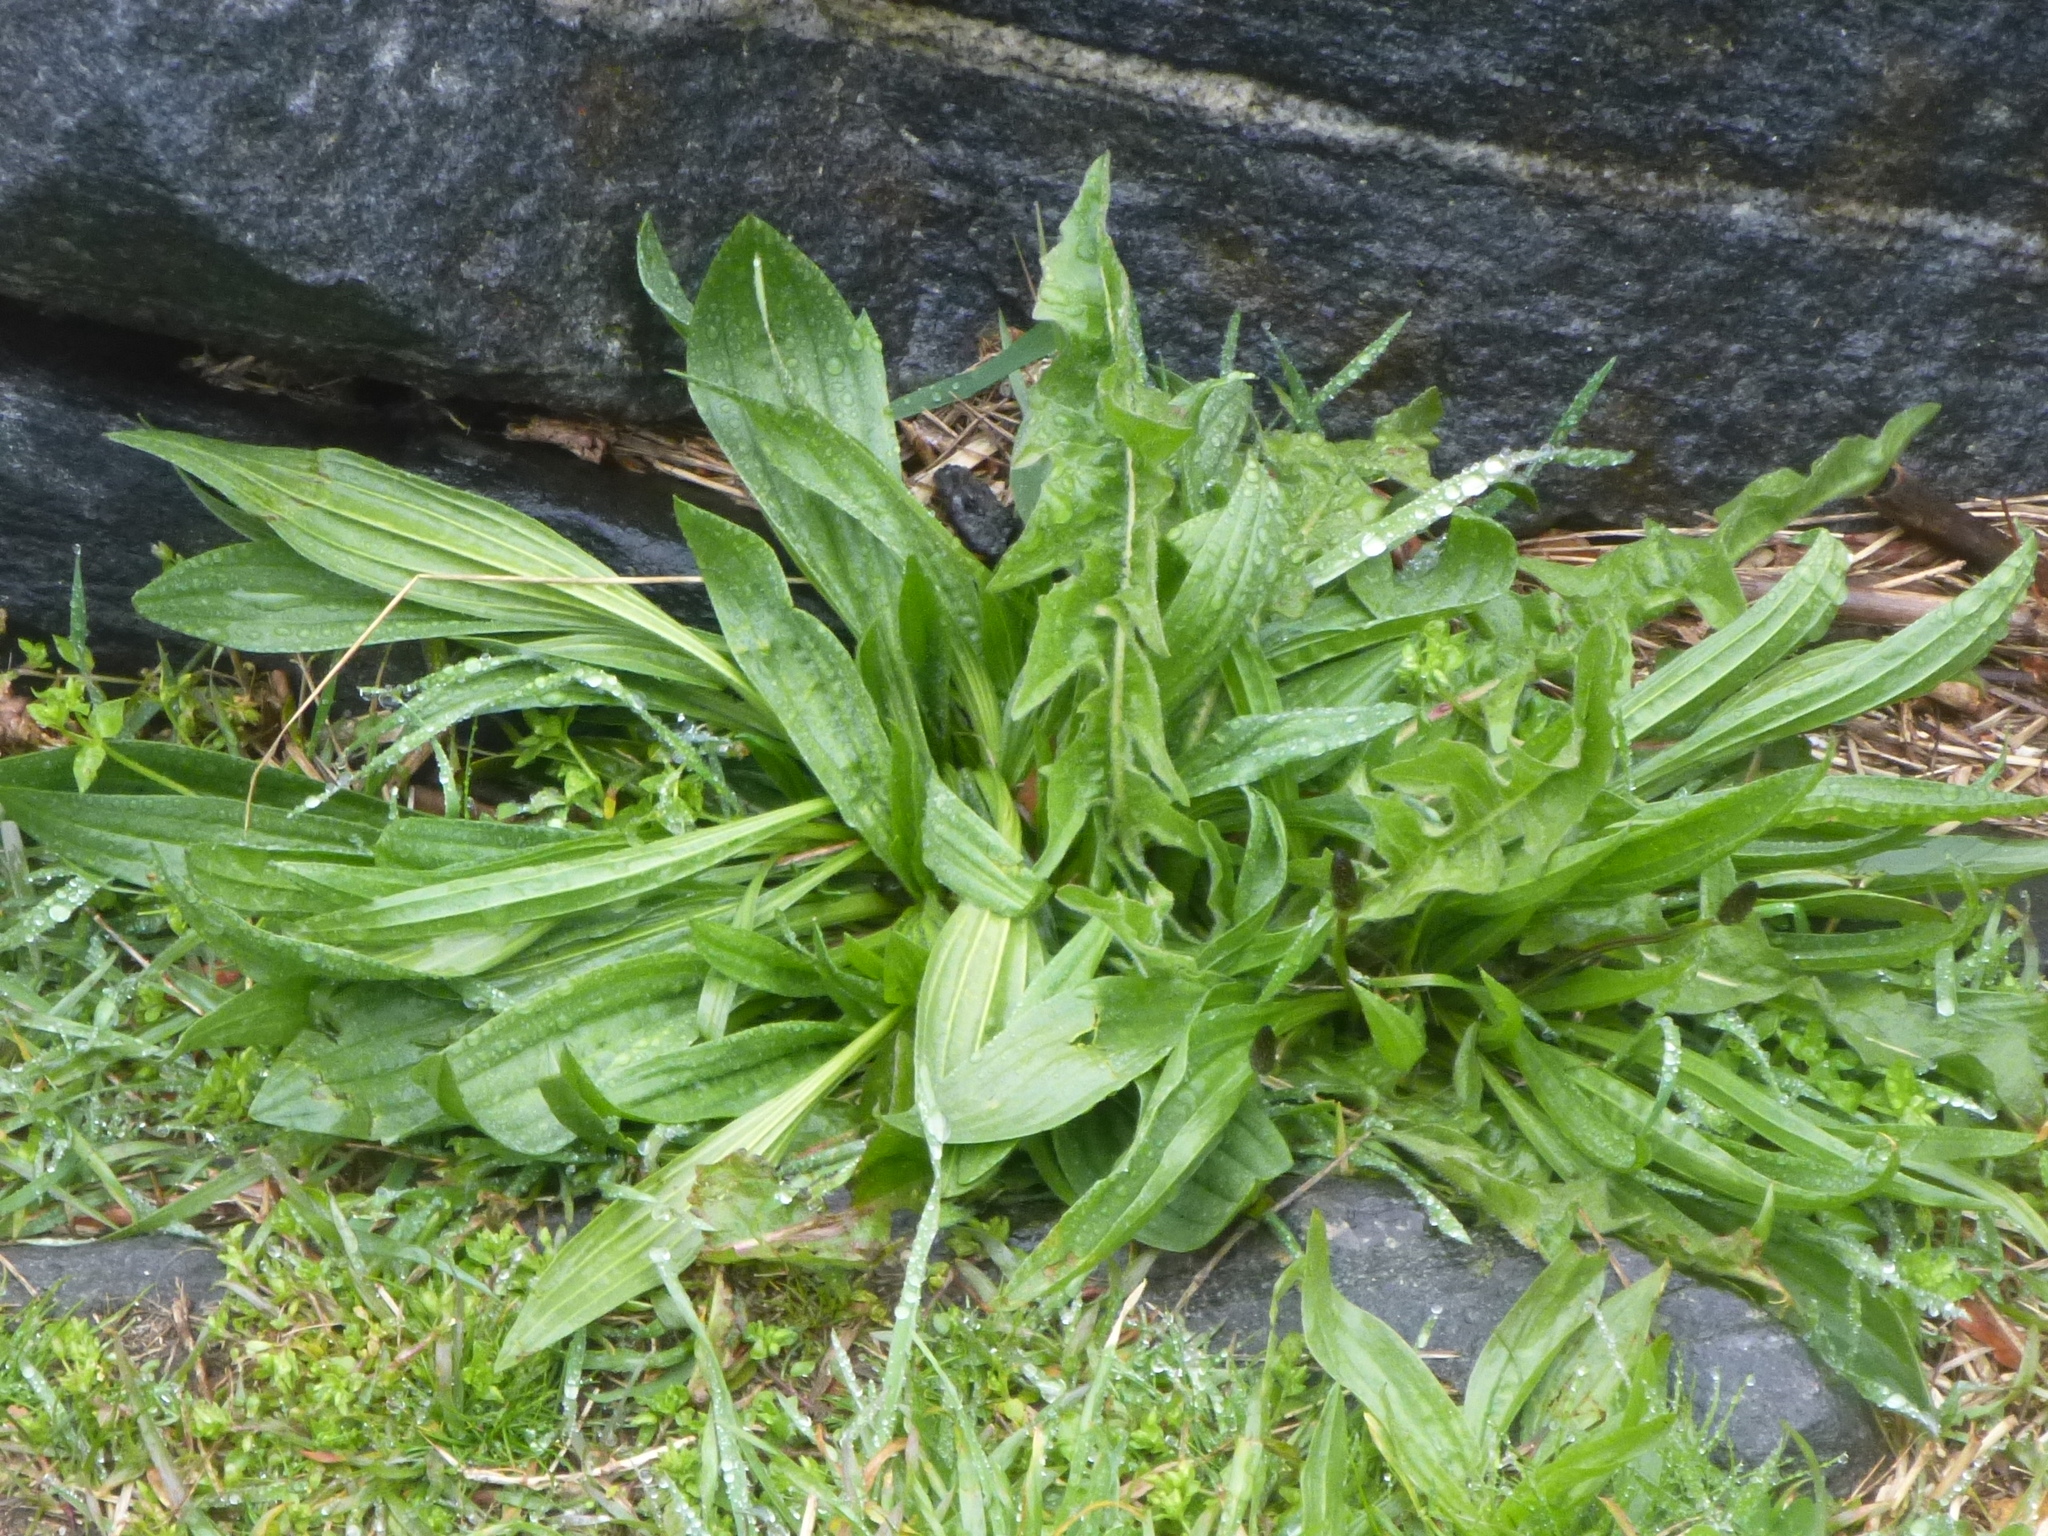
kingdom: Plantae
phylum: Tracheophyta
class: Magnoliopsida
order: Lamiales
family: Plantaginaceae
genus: Plantago
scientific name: Plantago lanceolata
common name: Ribwort plantain
